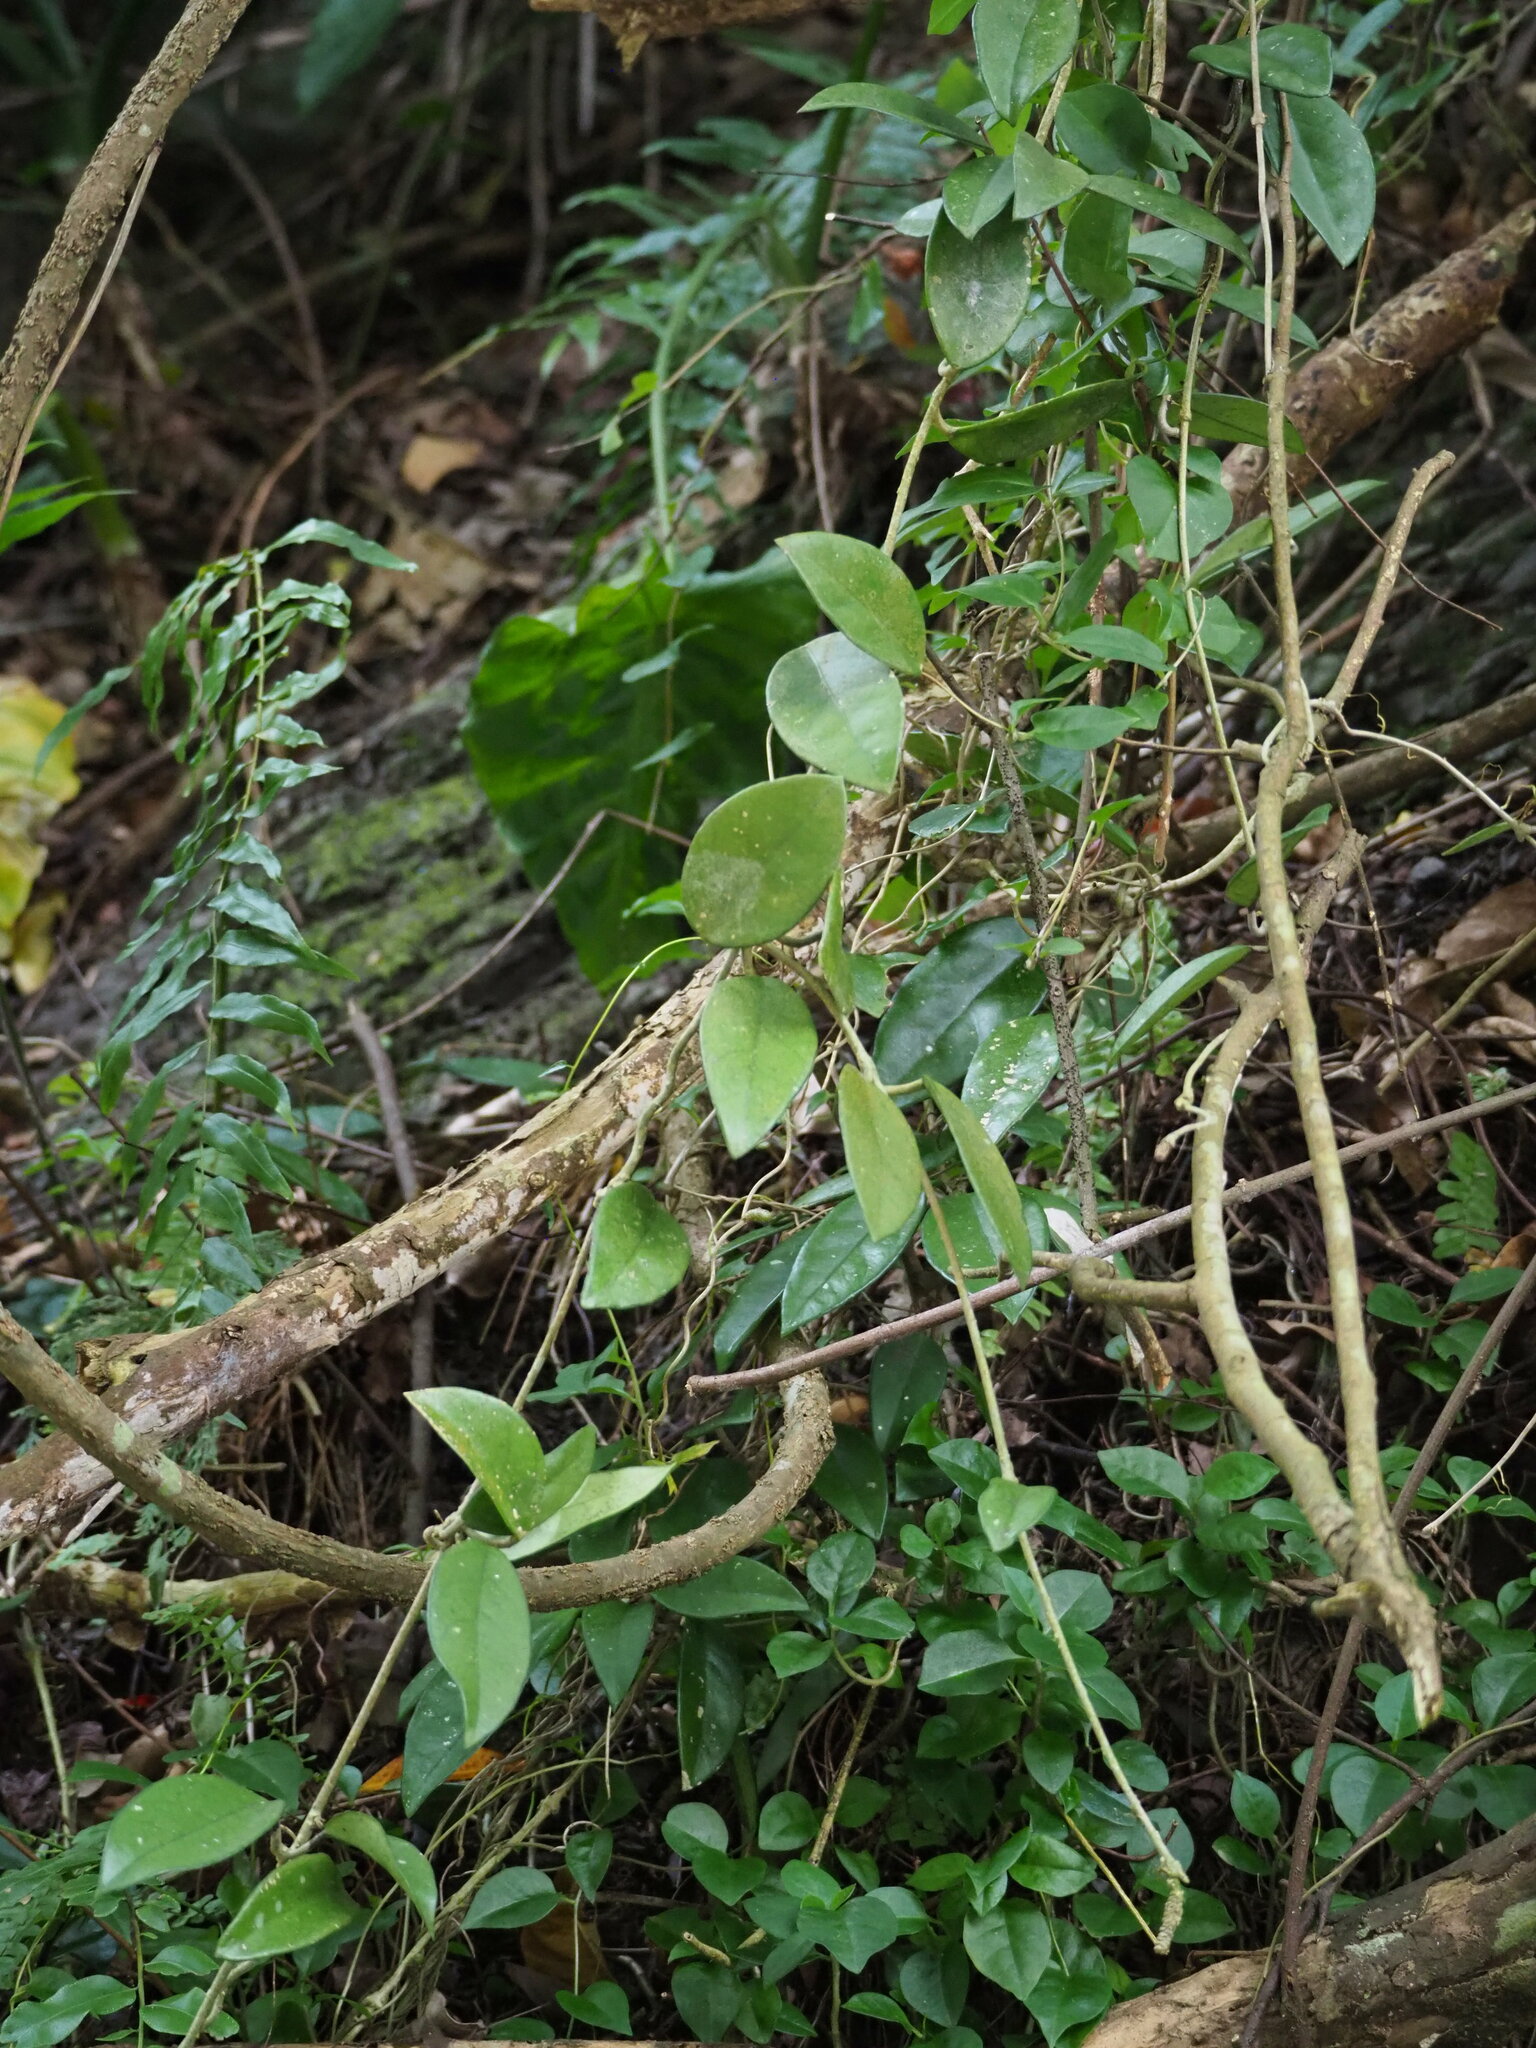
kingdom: Plantae
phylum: Tracheophyta
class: Magnoliopsida
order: Gentianales
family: Apocynaceae
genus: Hoya
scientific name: Hoya carnosa
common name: Honeyplant
